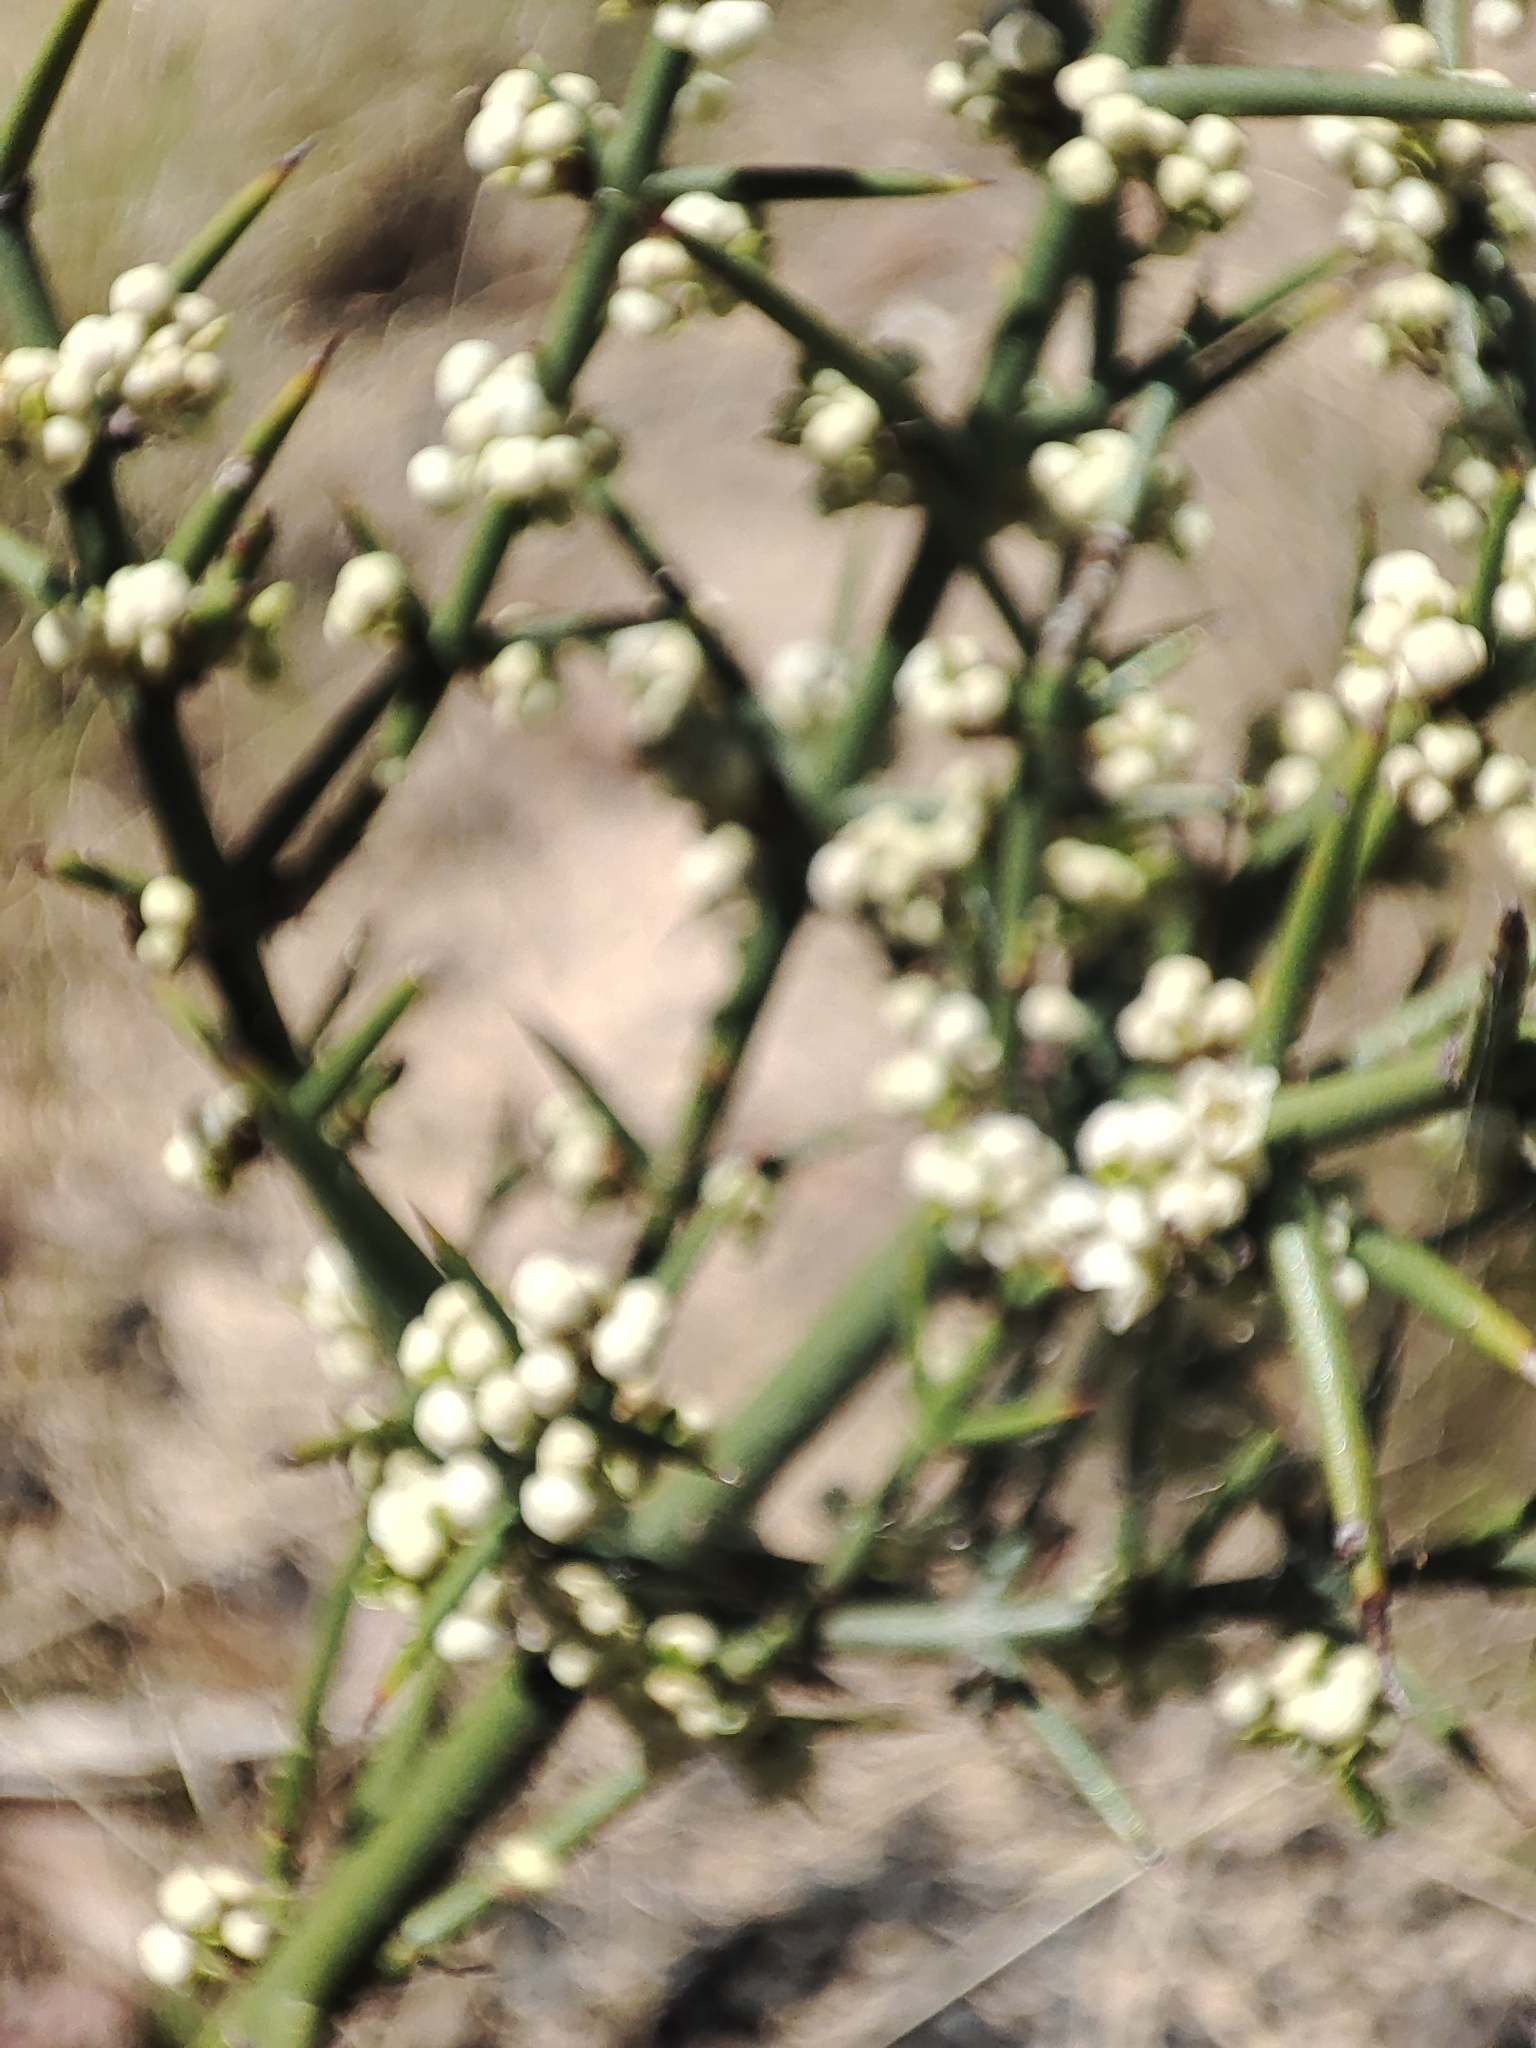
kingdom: Plantae
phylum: Tracheophyta
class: Magnoliopsida
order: Rosales
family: Rhamnaceae
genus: Discaria
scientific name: Discaria pubescens
